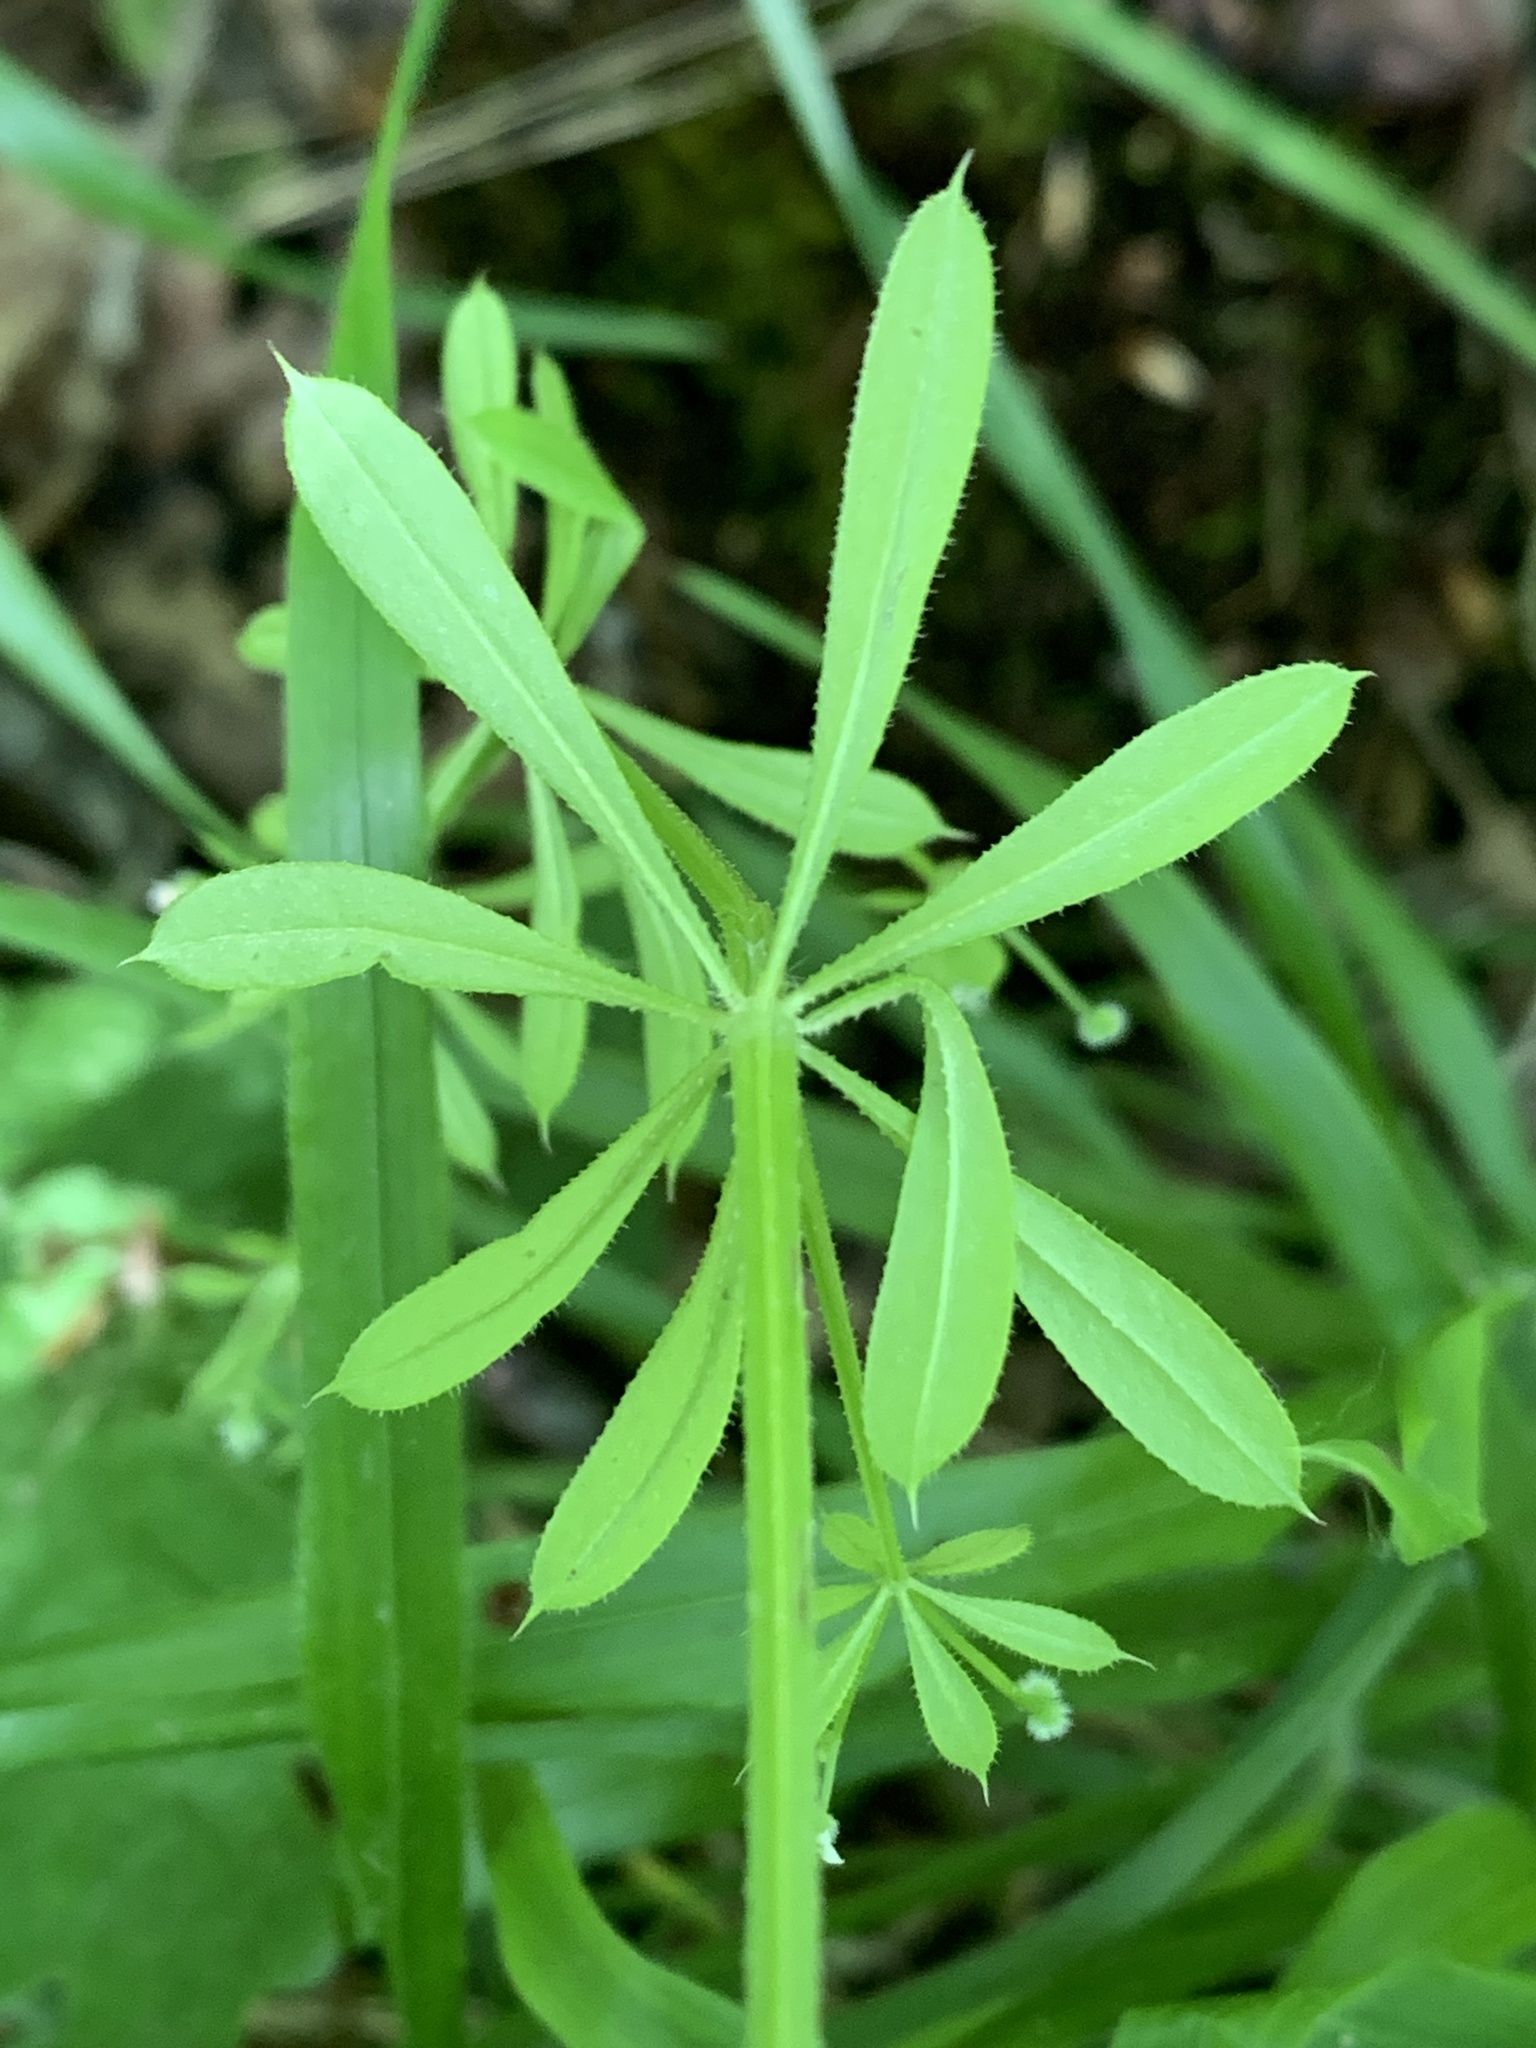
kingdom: Plantae
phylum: Tracheophyta
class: Magnoliopsida
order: Gentianales
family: Rubiaceae
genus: Galium
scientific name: Galium aparine
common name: Cleavers
